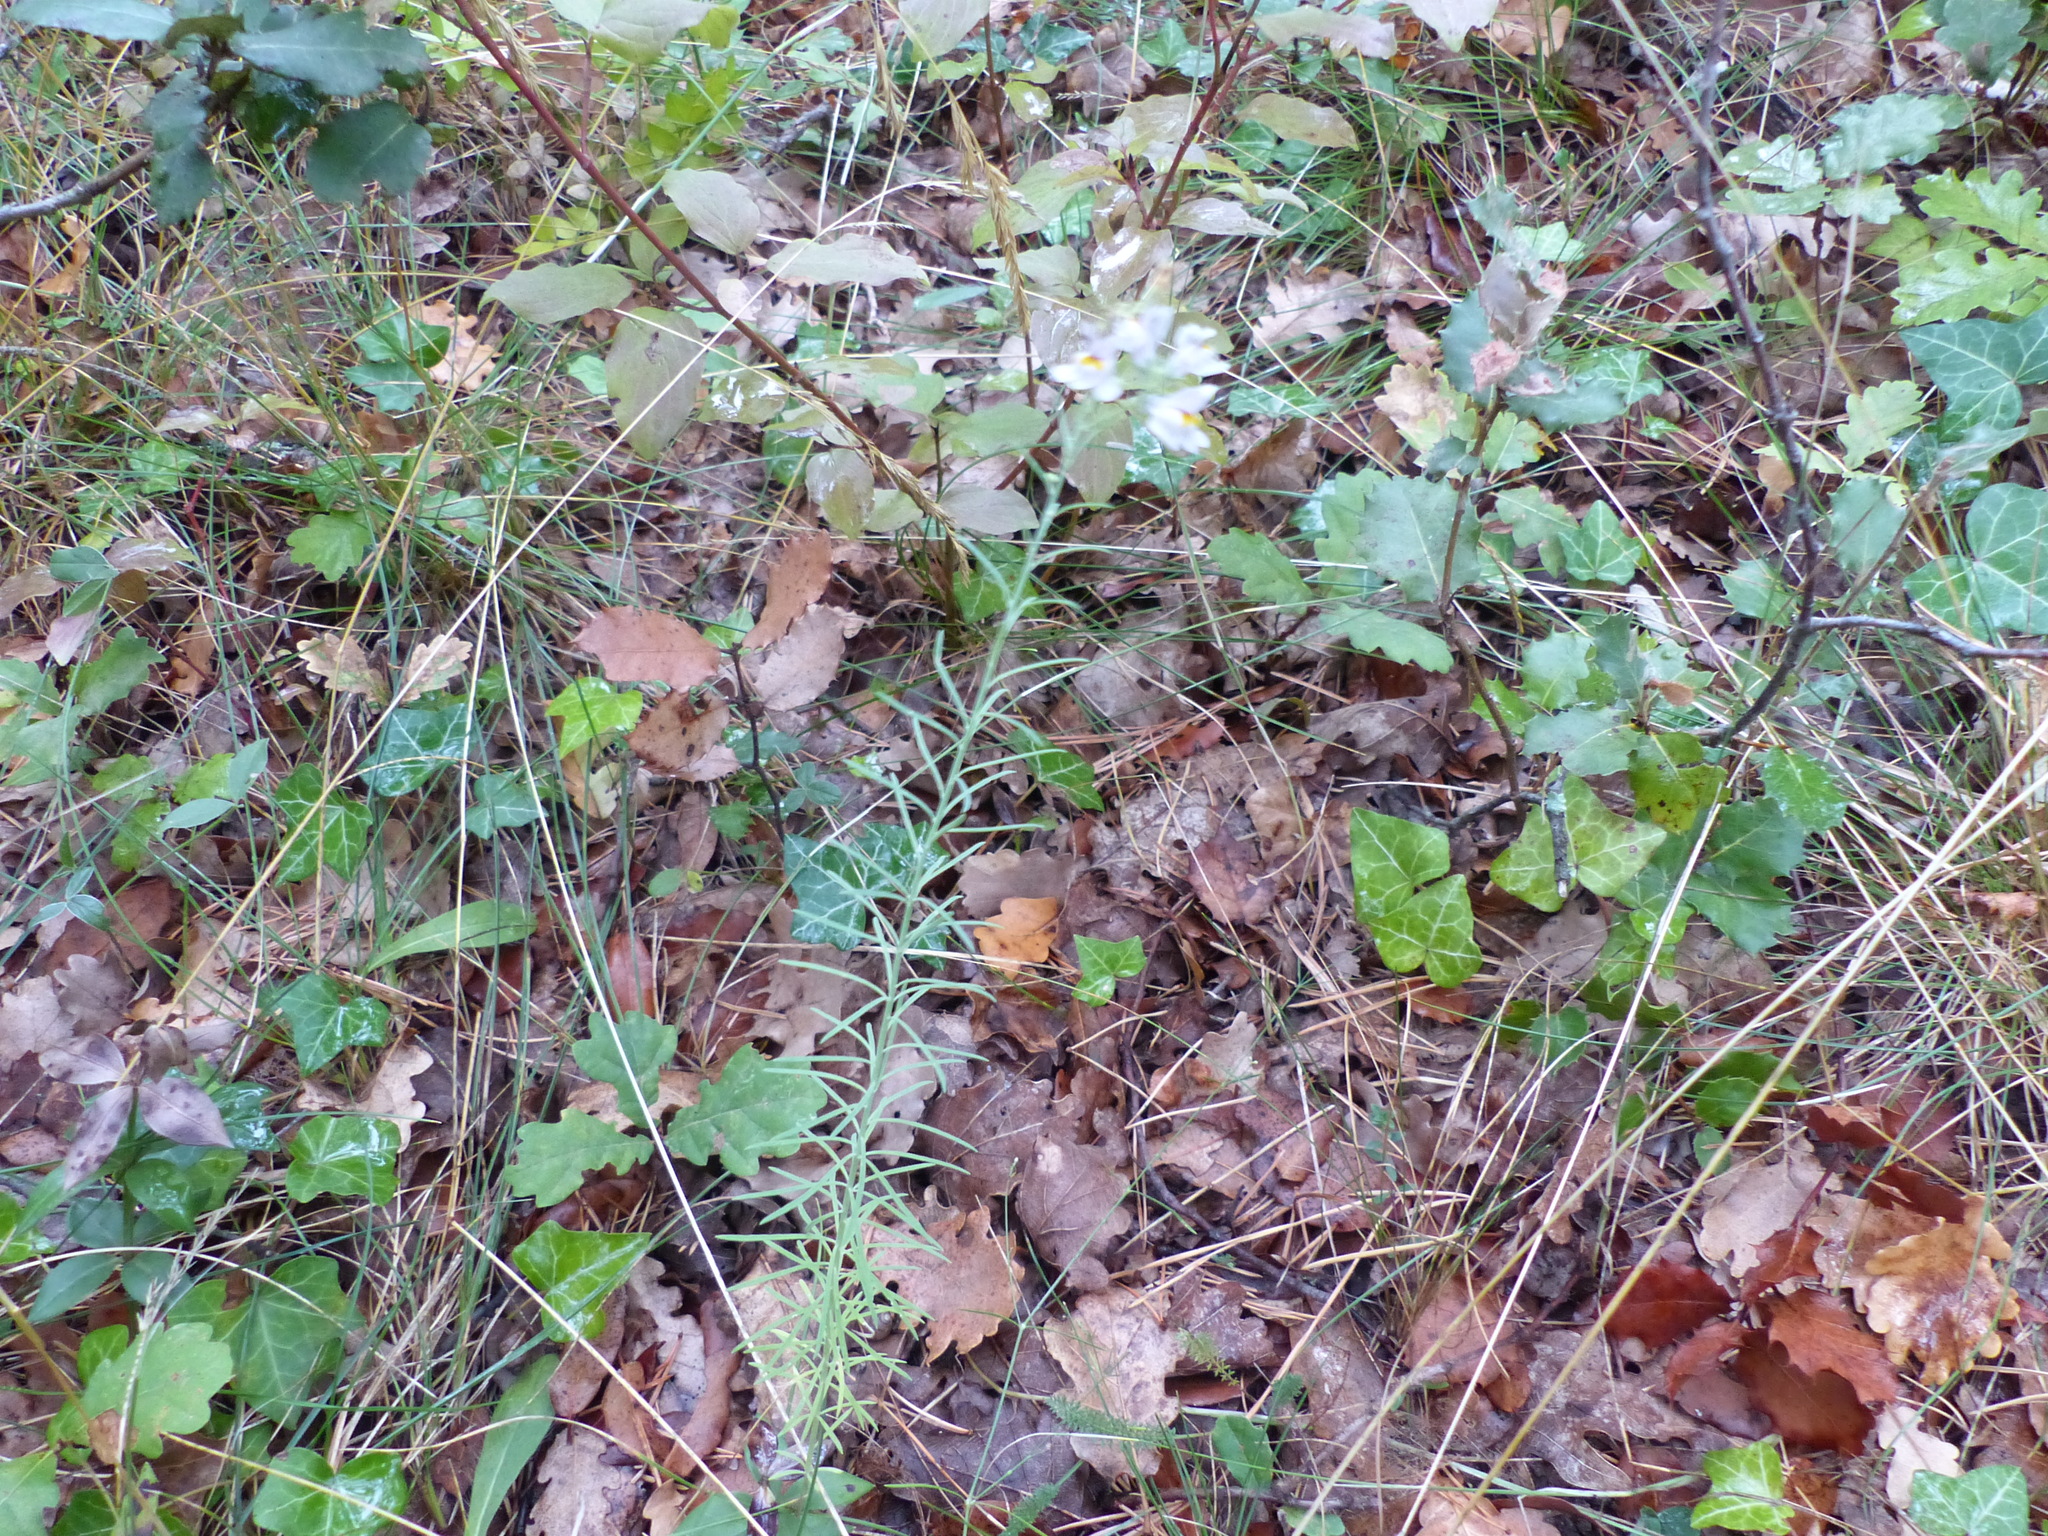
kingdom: Plantae
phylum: Tracheophyta
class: Magnoliopsida
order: Lamiales
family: Plantaginaceae
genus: Linaria
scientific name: Linaria repens
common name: Pale toadflax
